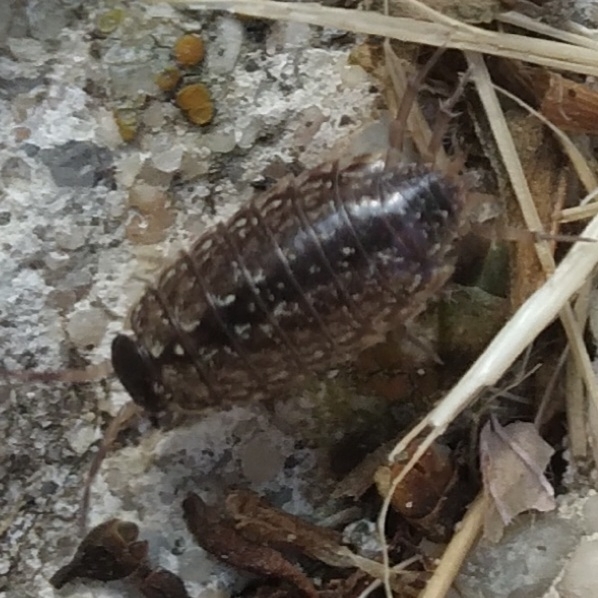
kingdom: Animalia
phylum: Arthropoda
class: Malacostraca
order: Isopoda
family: Philosciidae
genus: Philoscia
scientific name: Philoscia muscorum
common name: Common striped woodlouse
